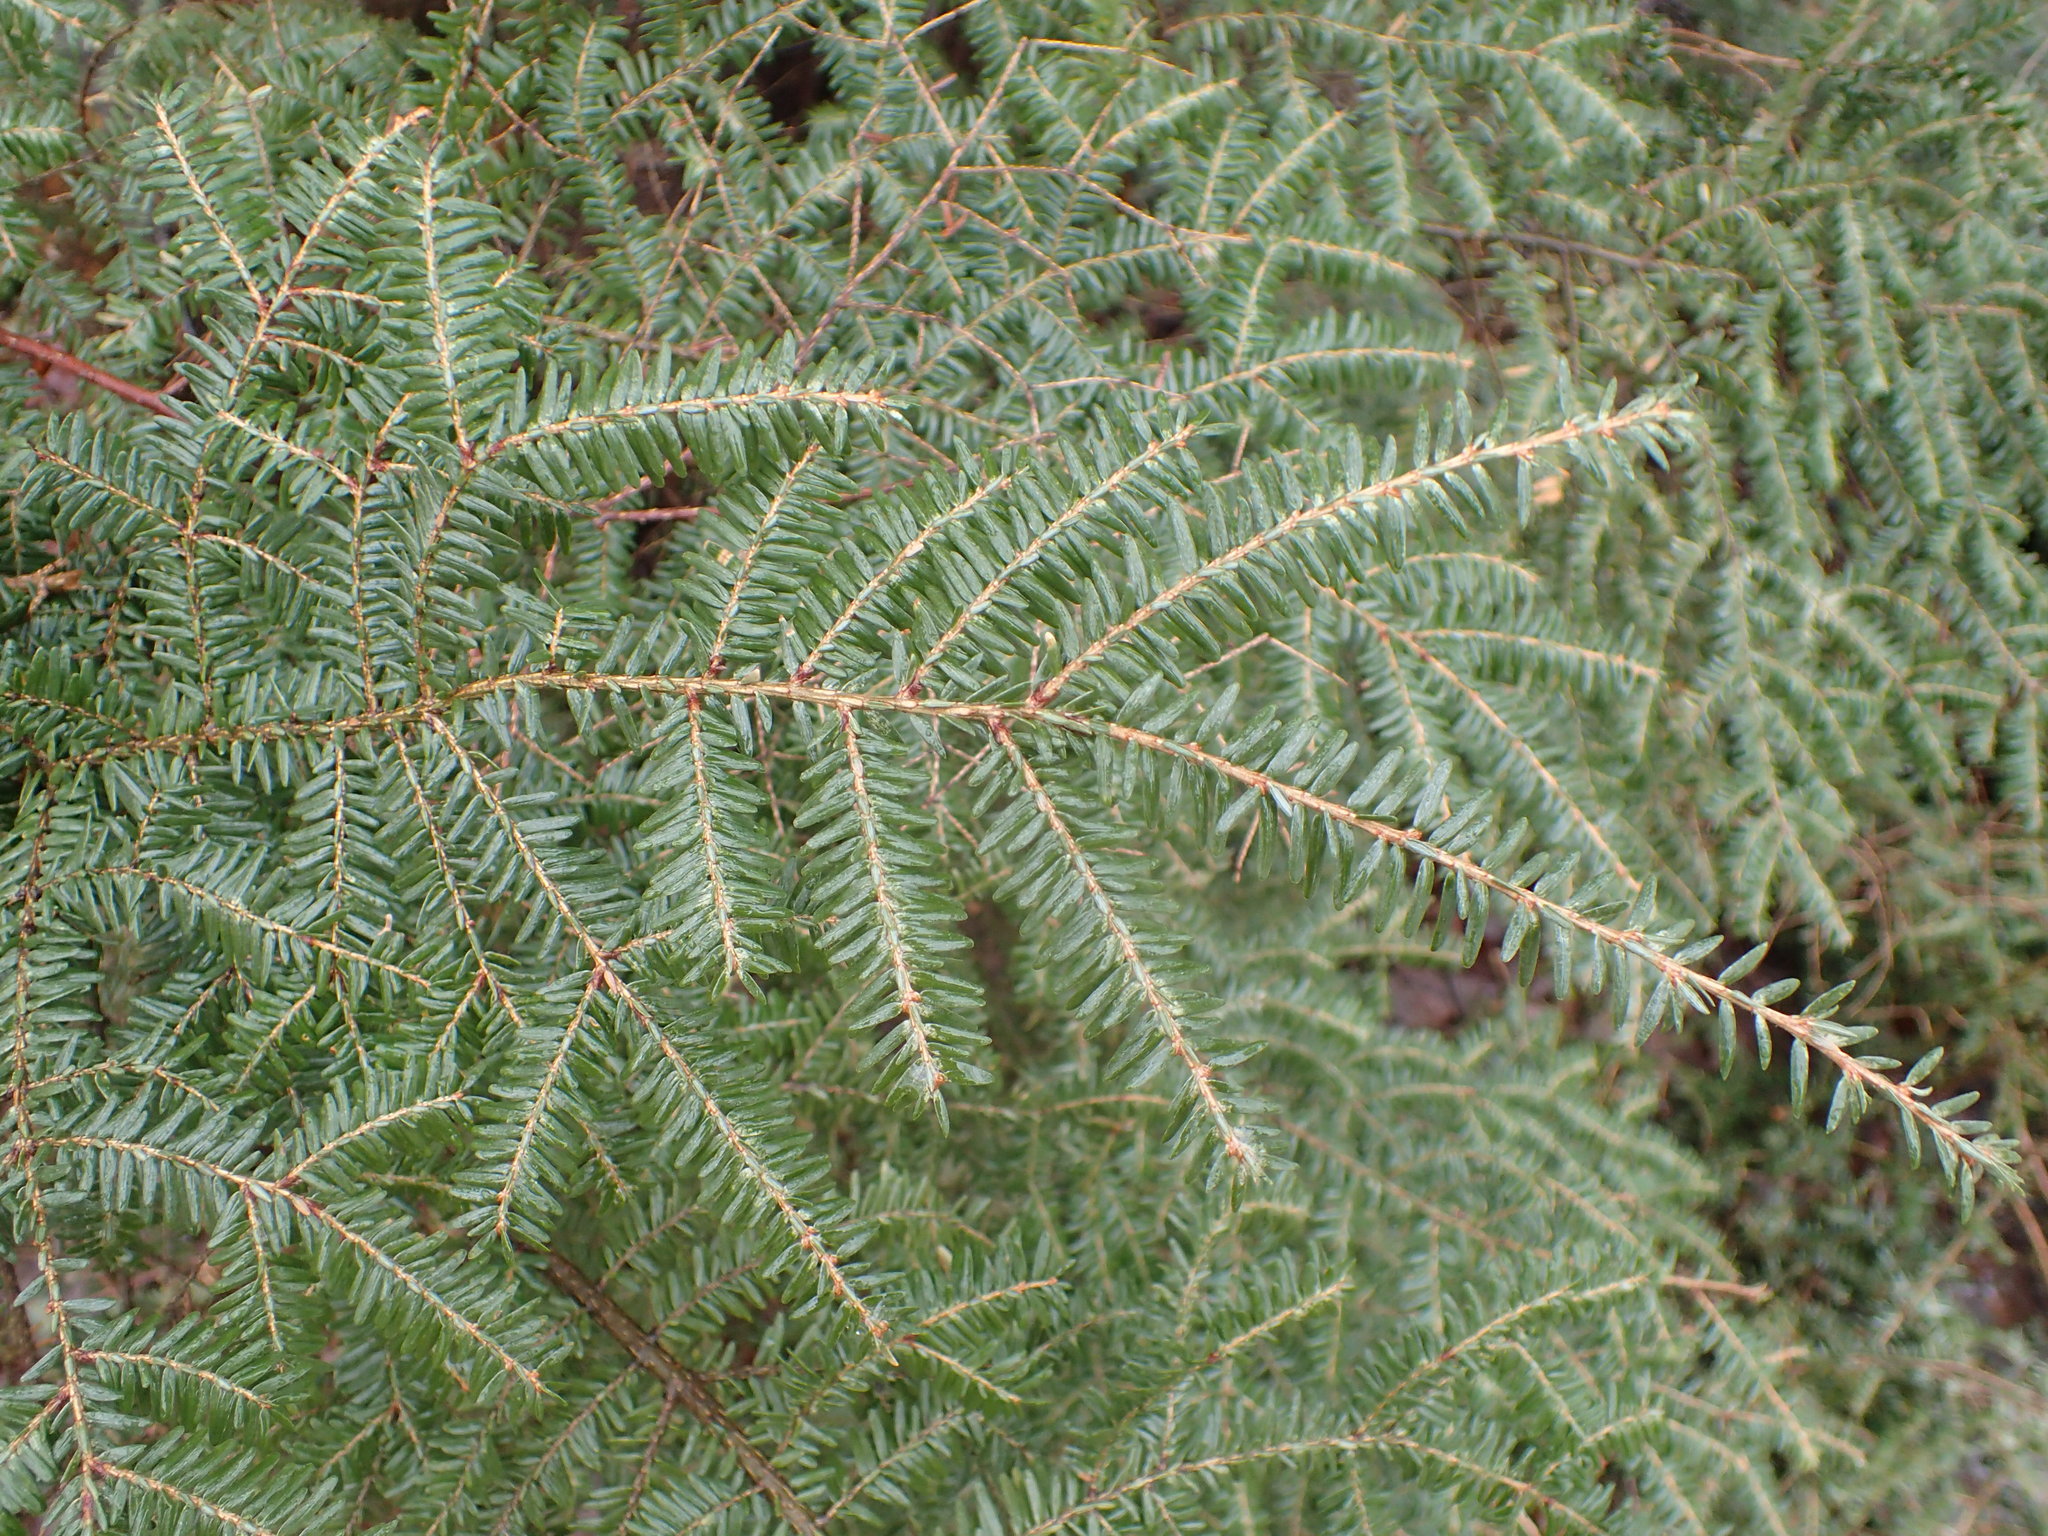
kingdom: Plantae
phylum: Tracheophyta
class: Pinopsida
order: Pinales
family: Pinaceae
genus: Tsuga
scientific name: Tsuga canadensis
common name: Eastern hemlock
